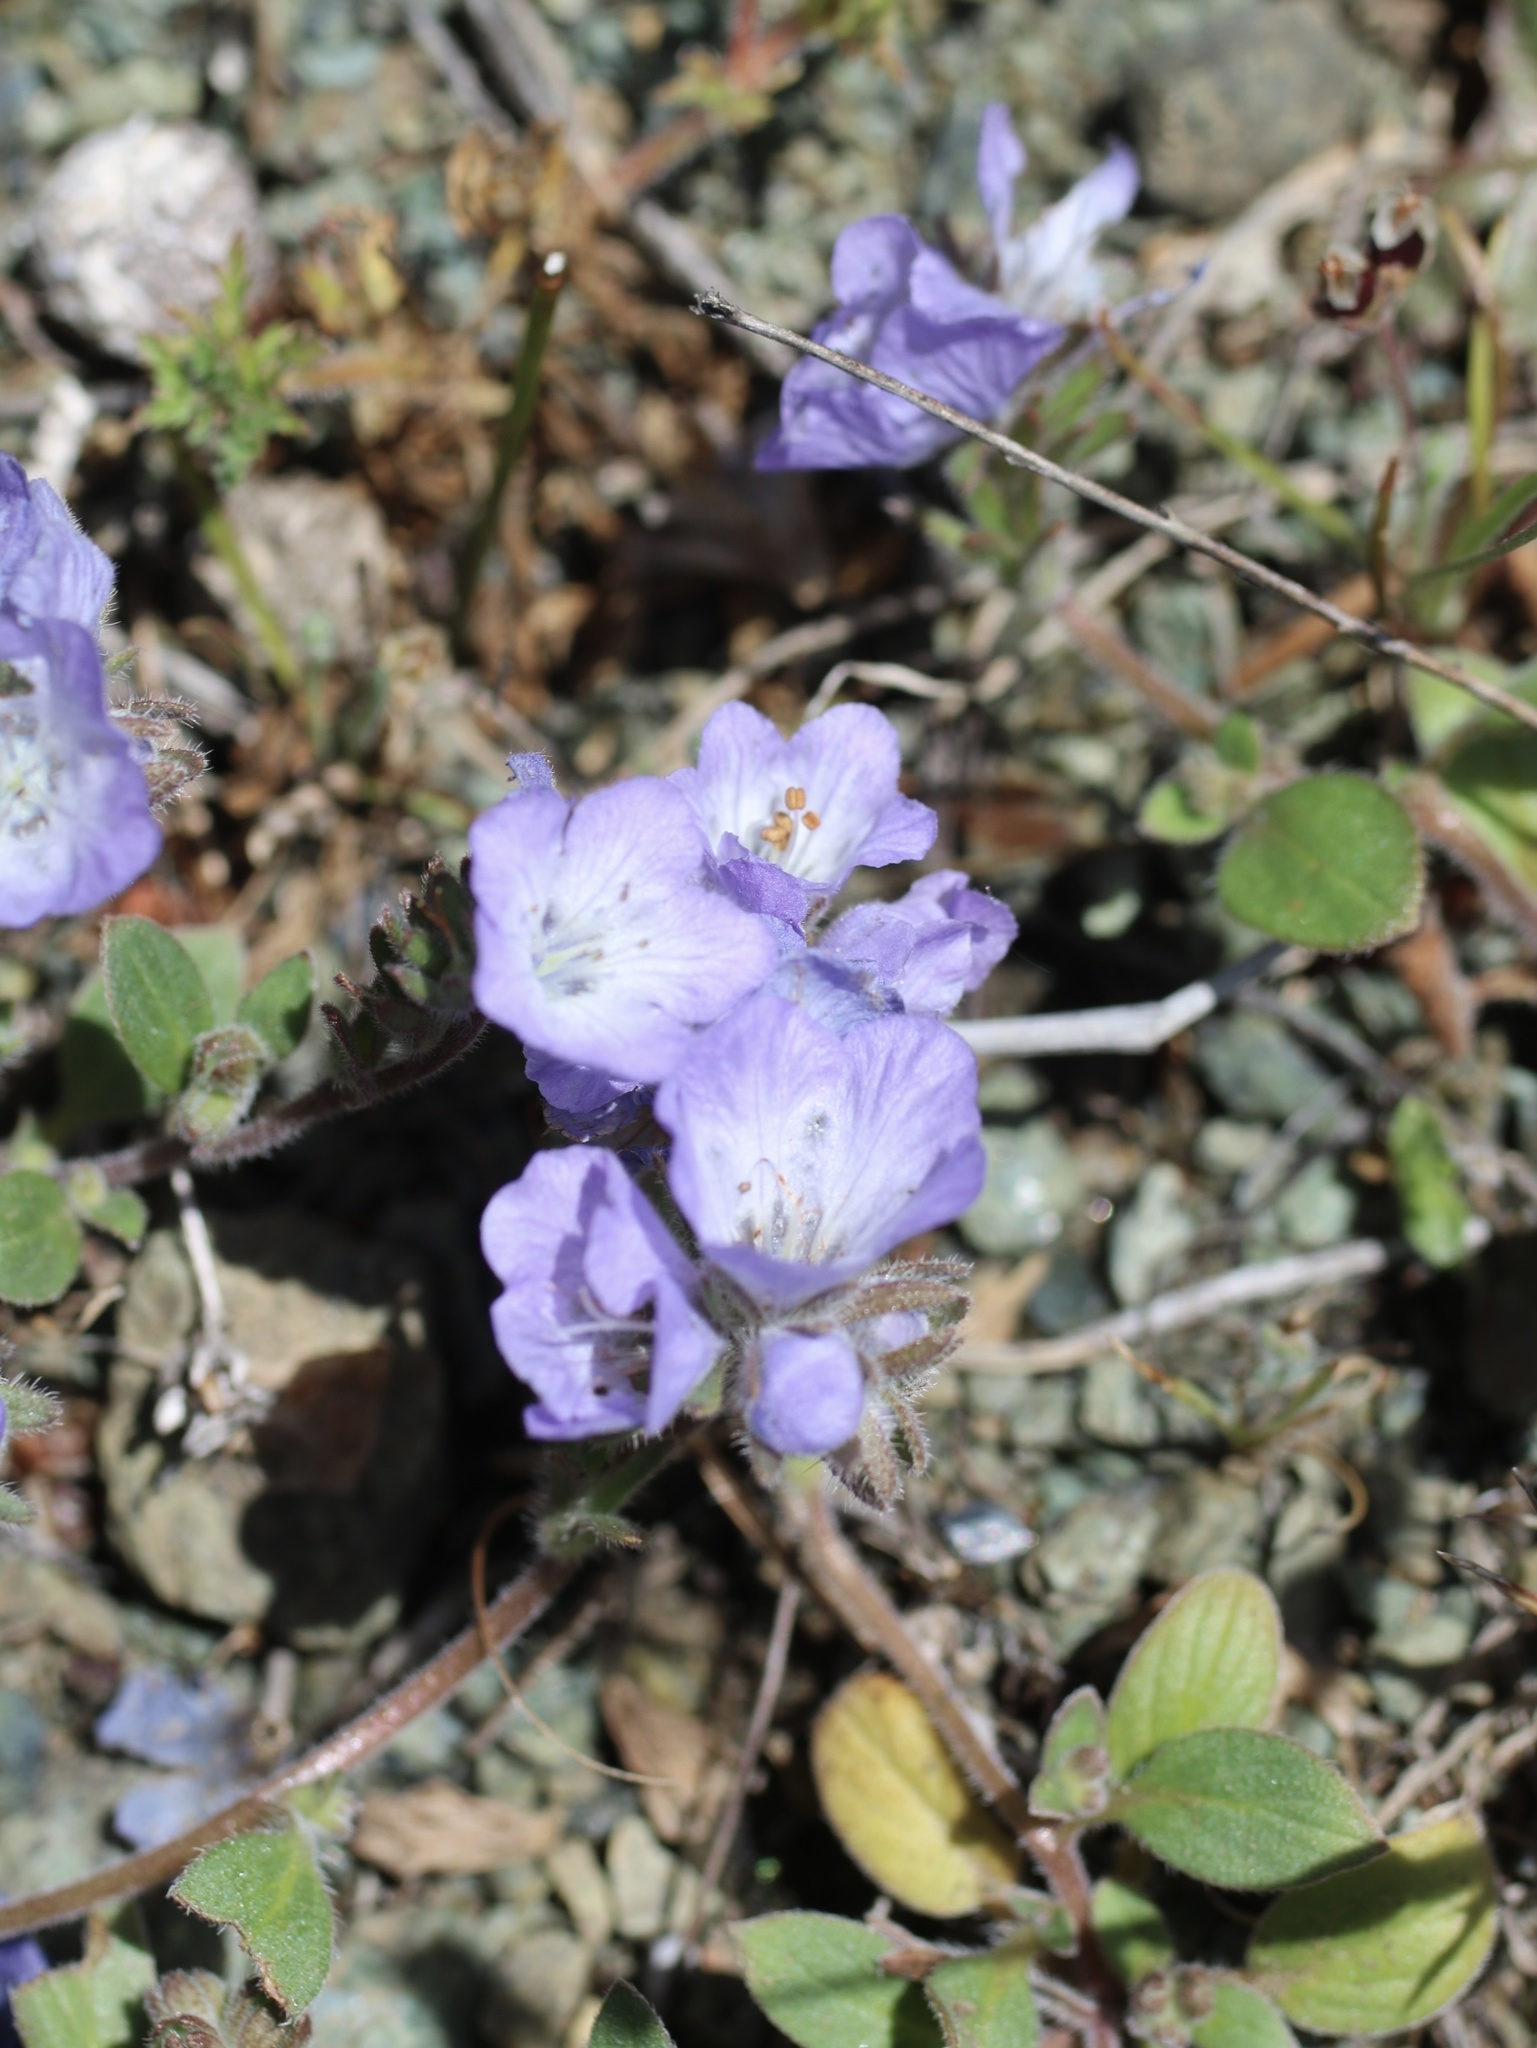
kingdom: Plantae
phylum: Tracheophyta
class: Magnoliopsida
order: Boraginales
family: Hydrophyllaceae
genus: Phacelia
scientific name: Phacelia divaricata
